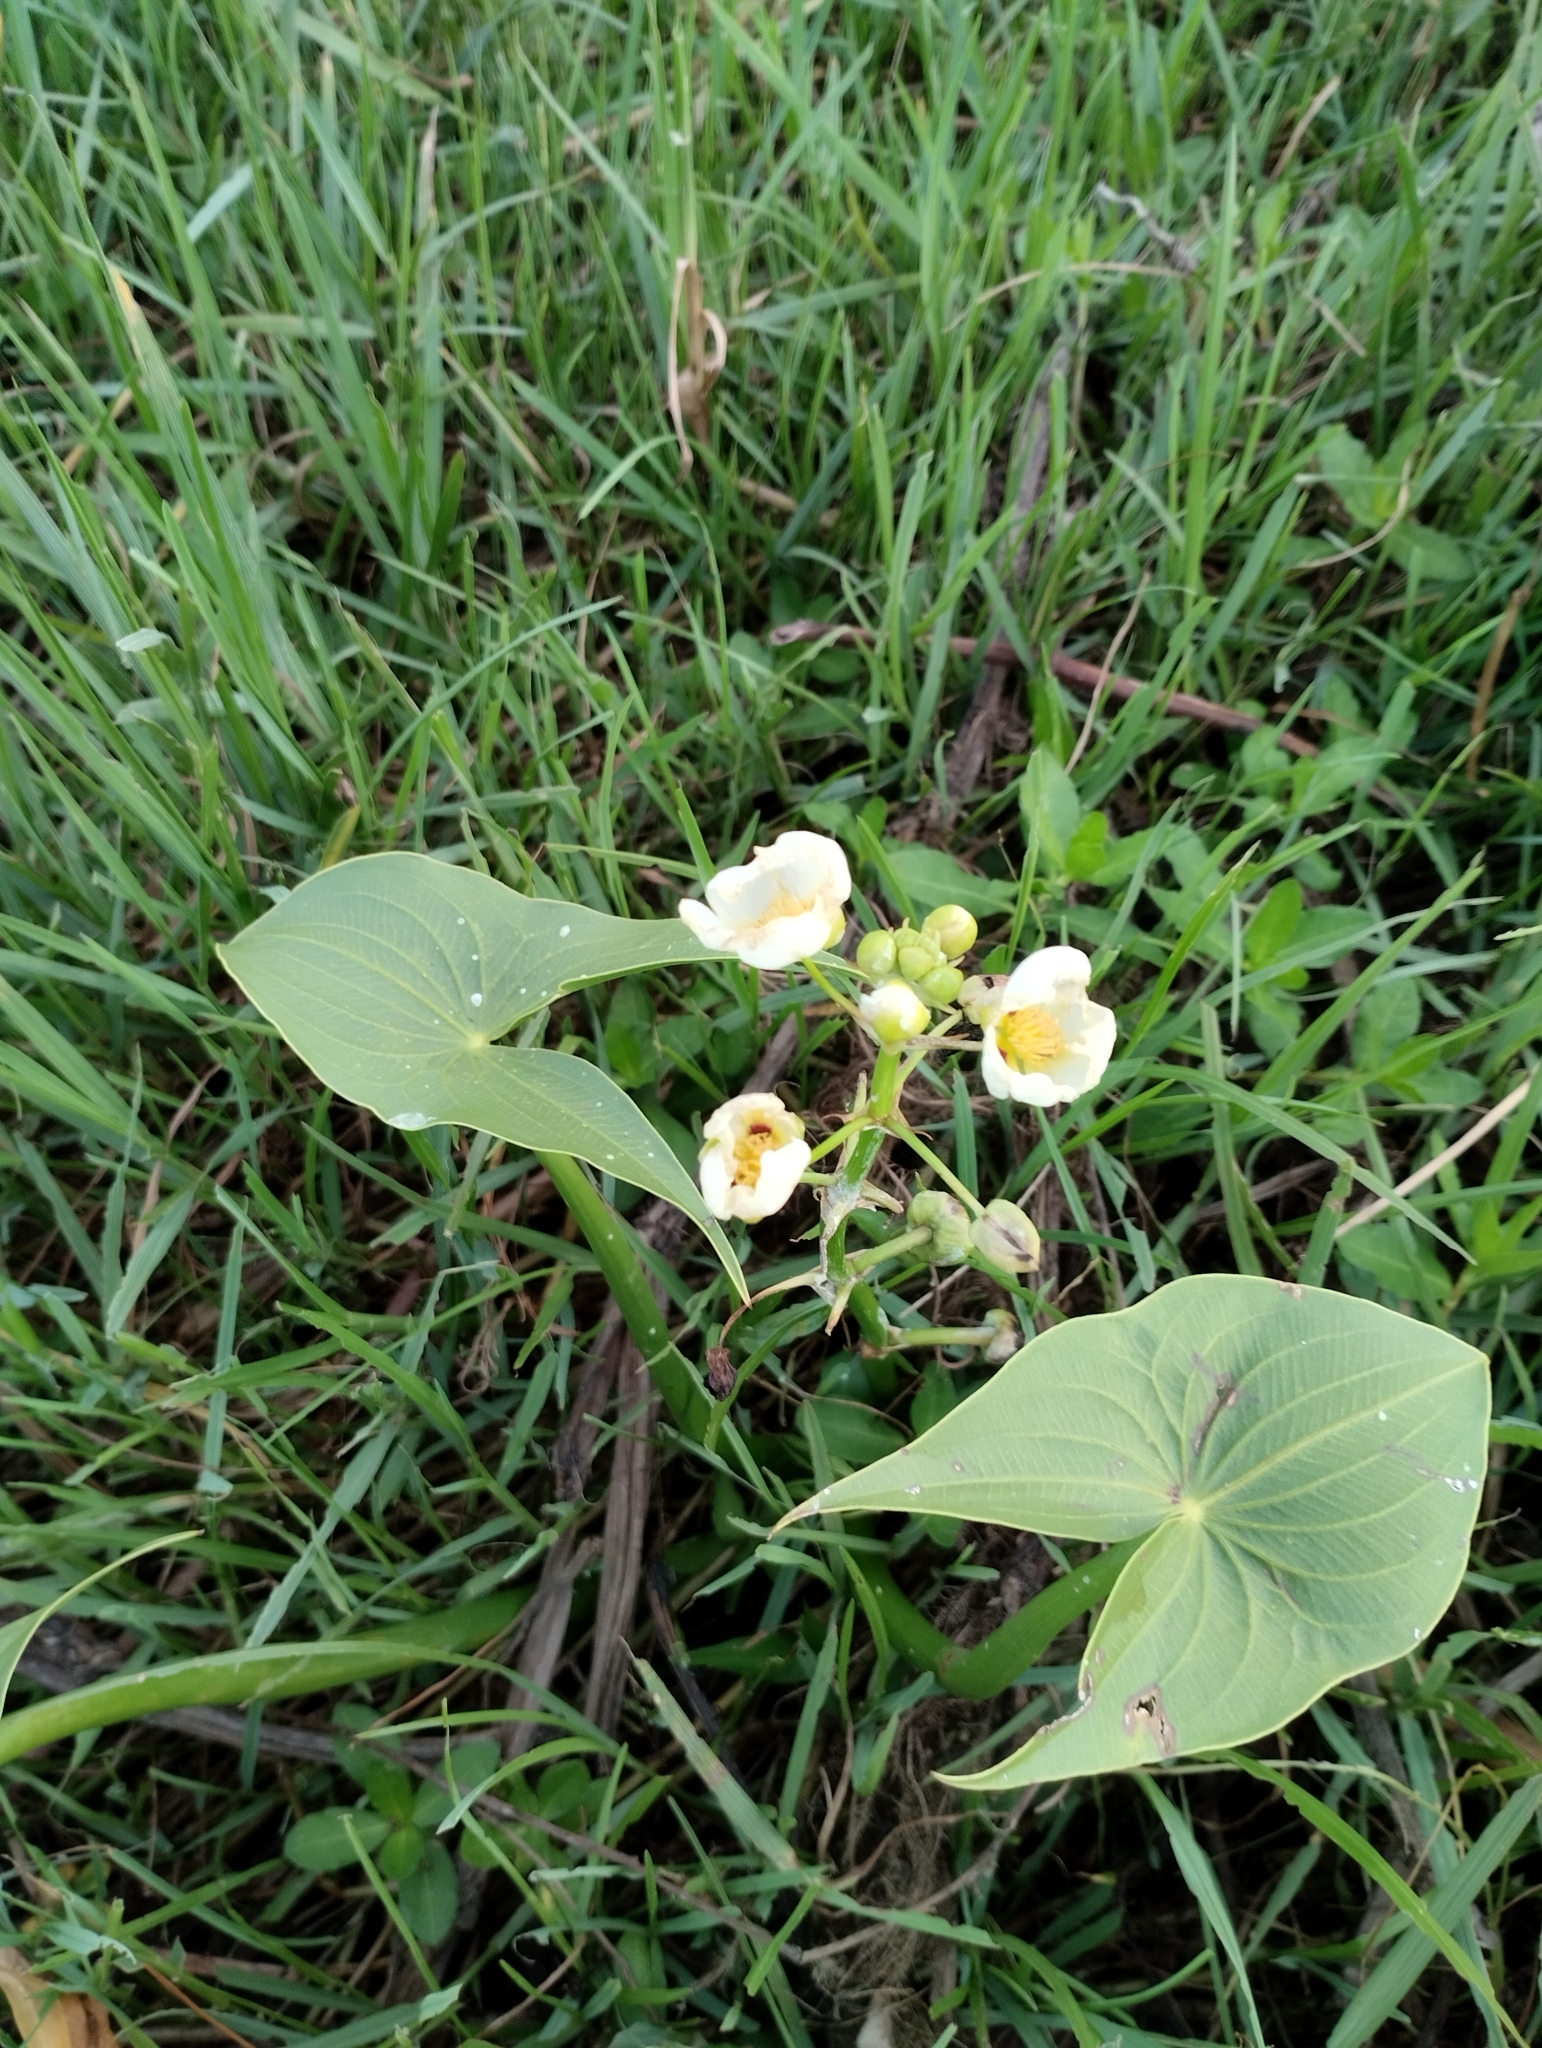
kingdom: Plantae
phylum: Tracheophyta
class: Liliopsida
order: Alismatales
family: Alismataceae
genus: Sagittaria
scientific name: Sagittaria montevidensis
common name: Giant arrowhead
